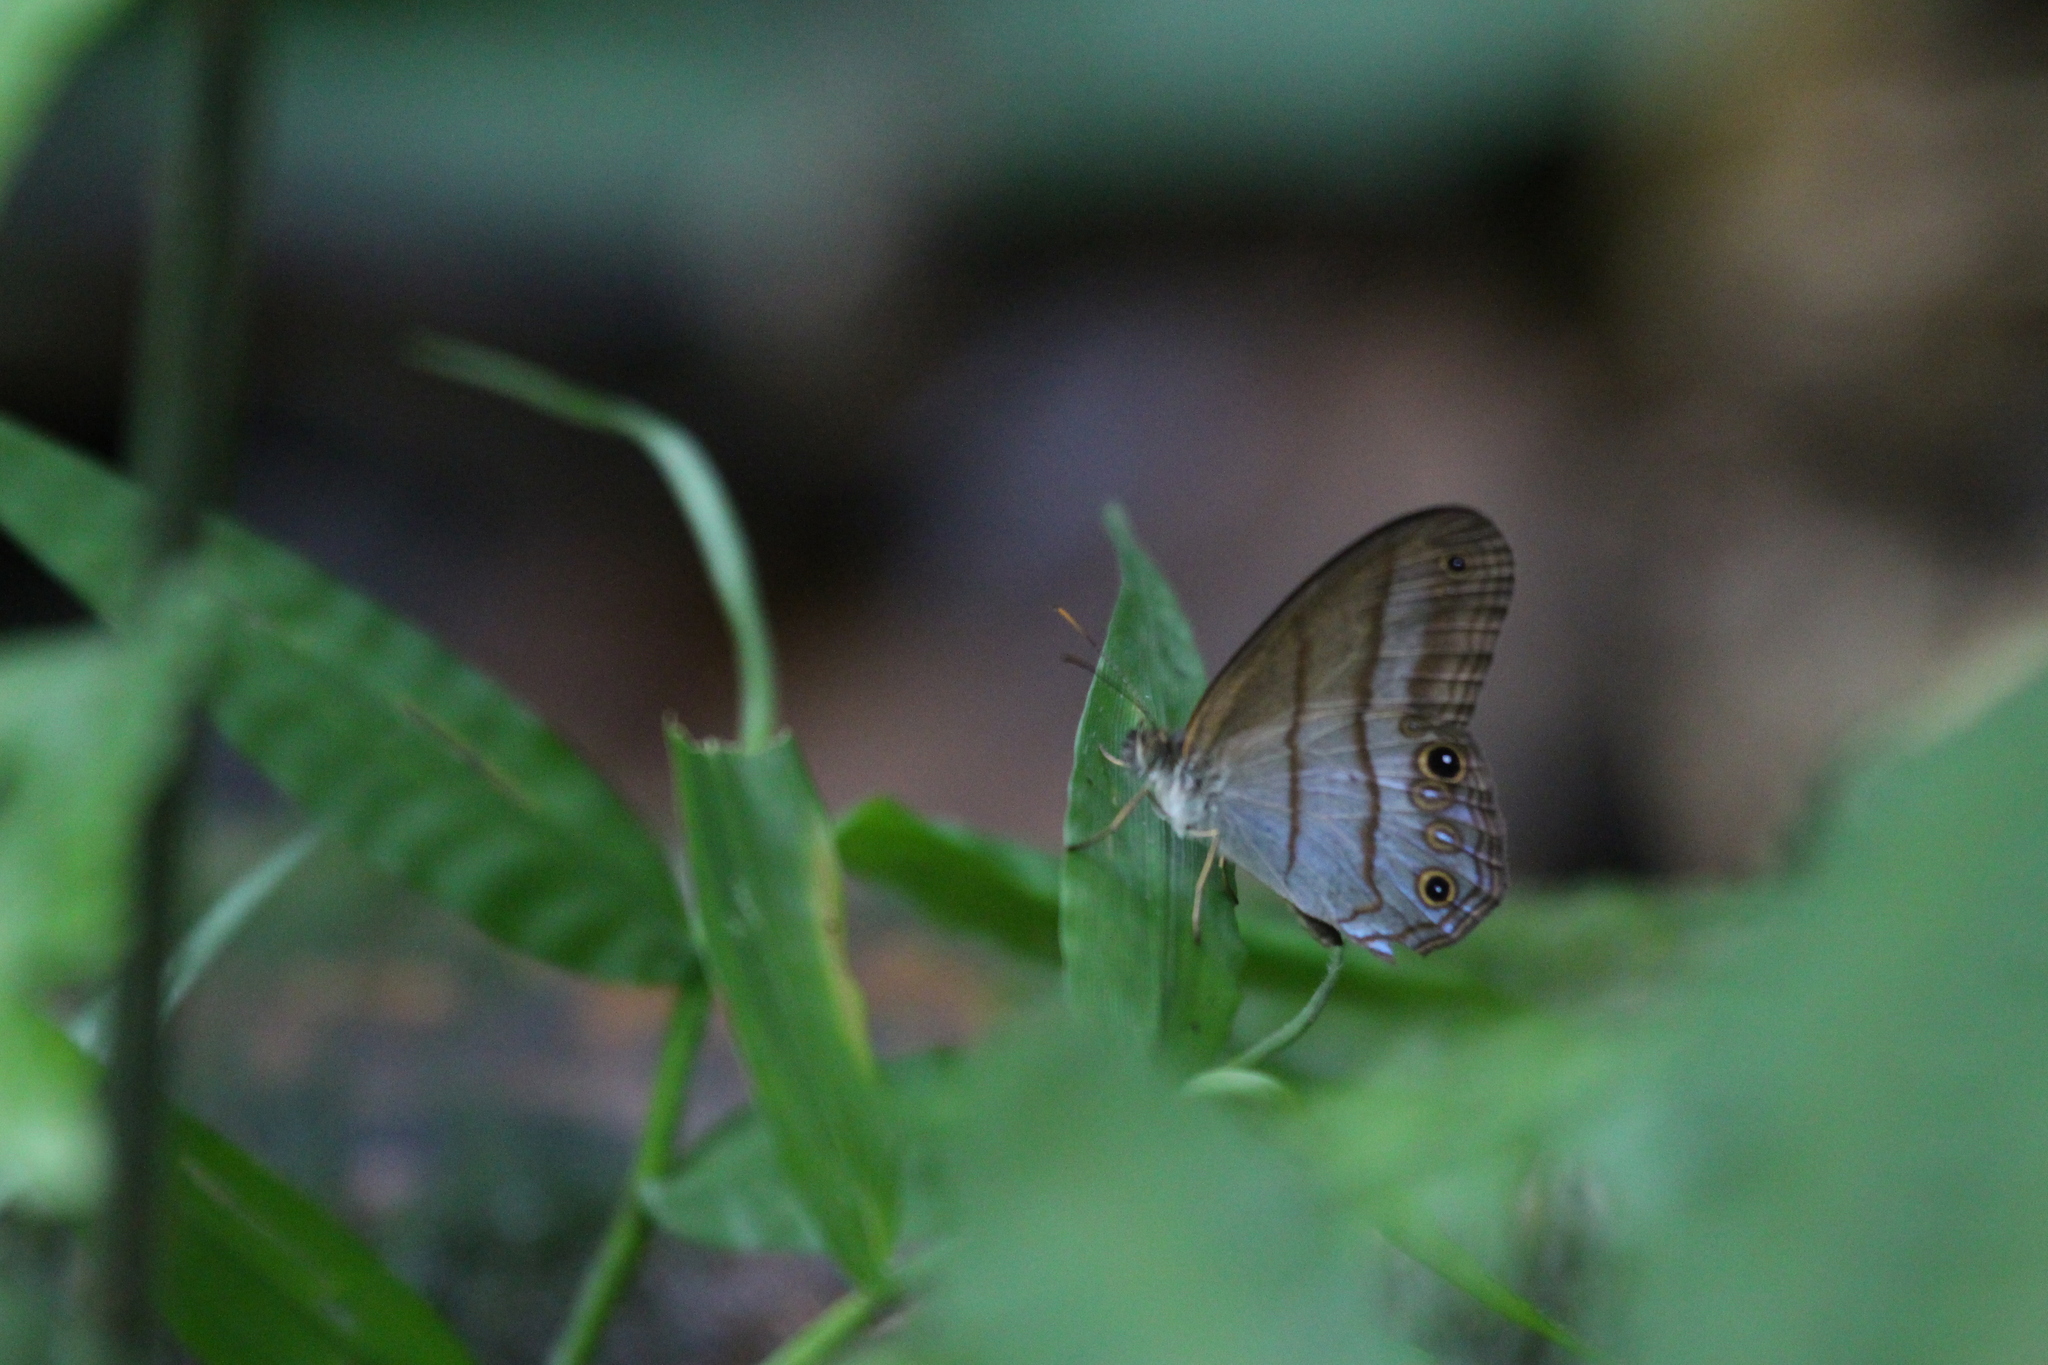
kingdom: Animalia
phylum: Arthropoda
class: Insecta
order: Lepidoptera
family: Nymphalidae
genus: Amiga
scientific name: Amiga arnaca
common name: Blue-topped satyr
